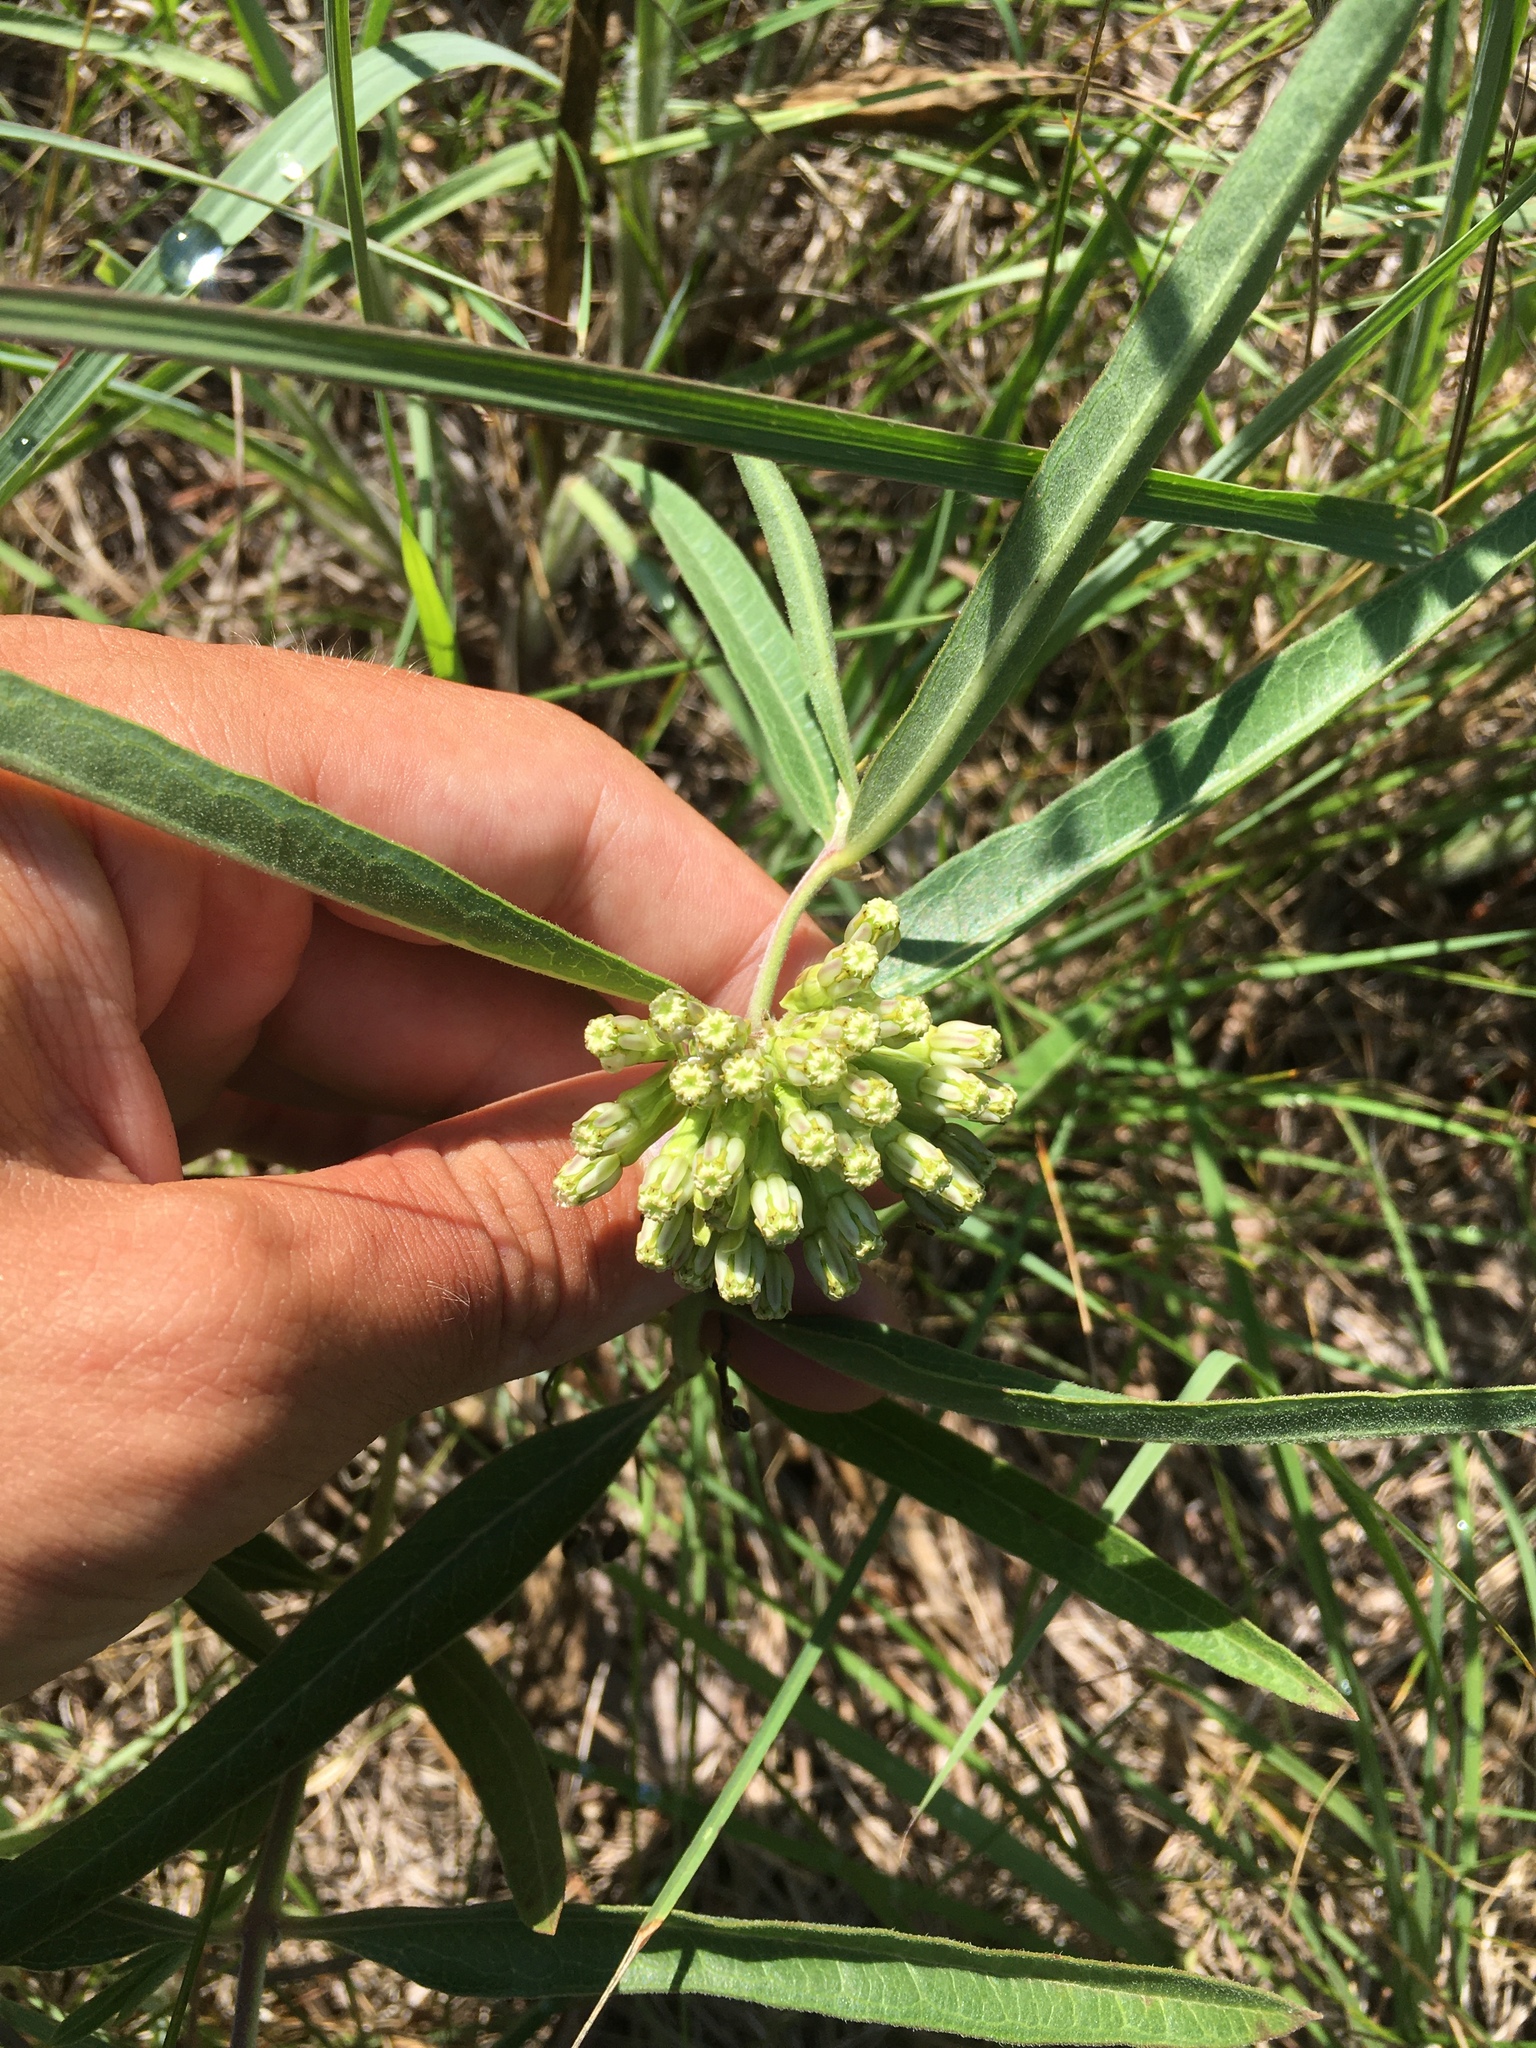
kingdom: Plantae
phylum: Tracheophyta
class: Magnoliopsida
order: Gentianales
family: Apocynaceae
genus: Asclepias
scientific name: Asclepias viridiflora
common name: Green comet milkweed
